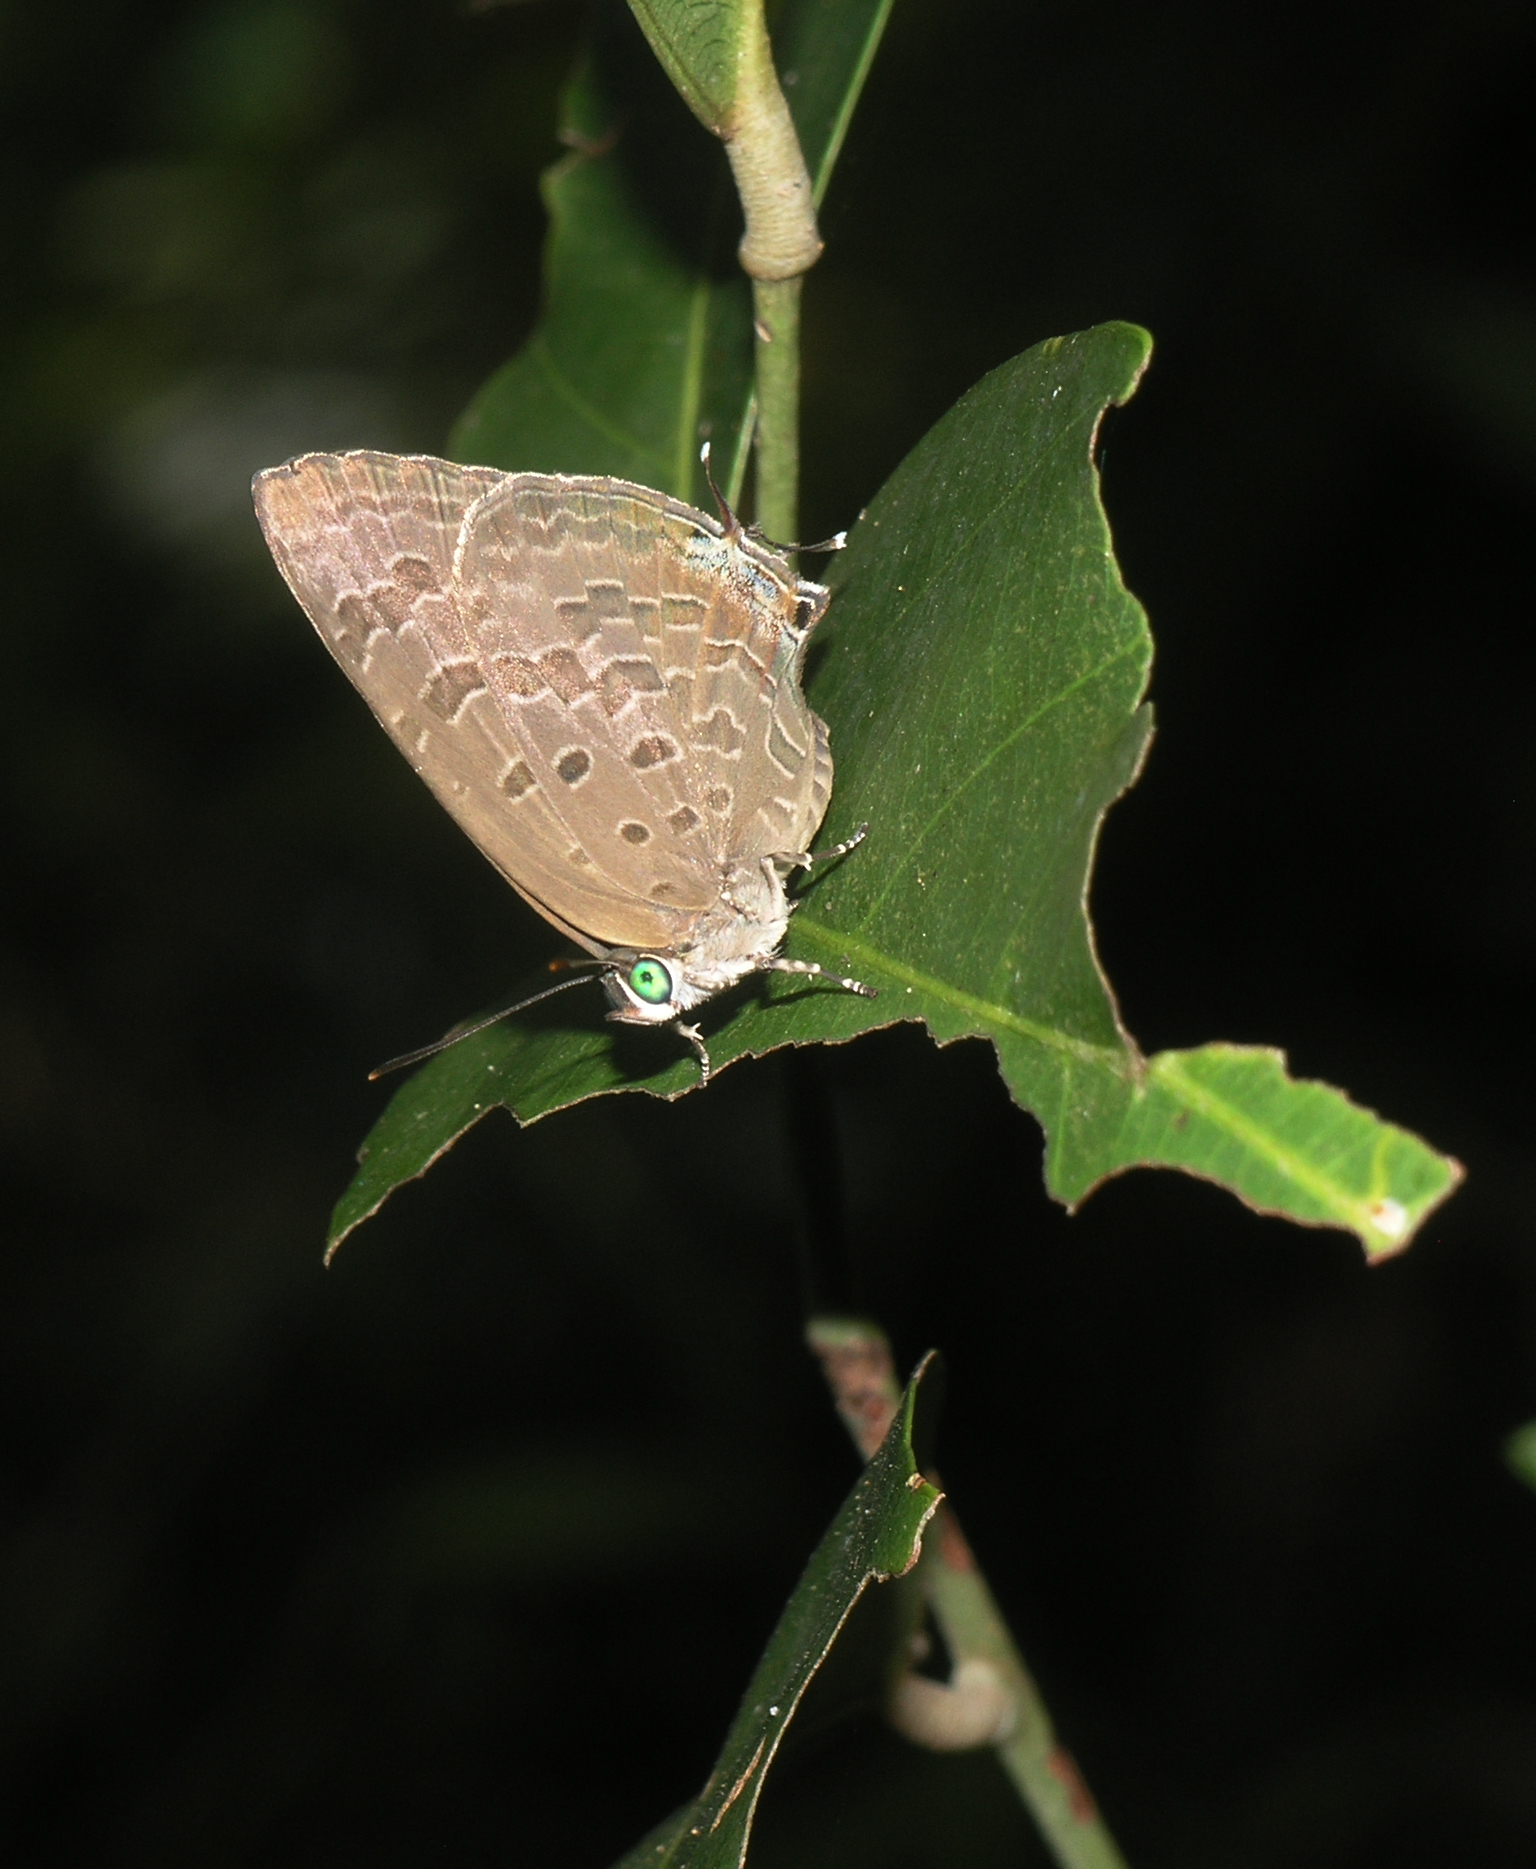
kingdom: Animalia
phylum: Arthropoda
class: Insecta
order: Lepidoptera
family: Lycaenidae
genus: Arhopala
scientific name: Arhopala aida
